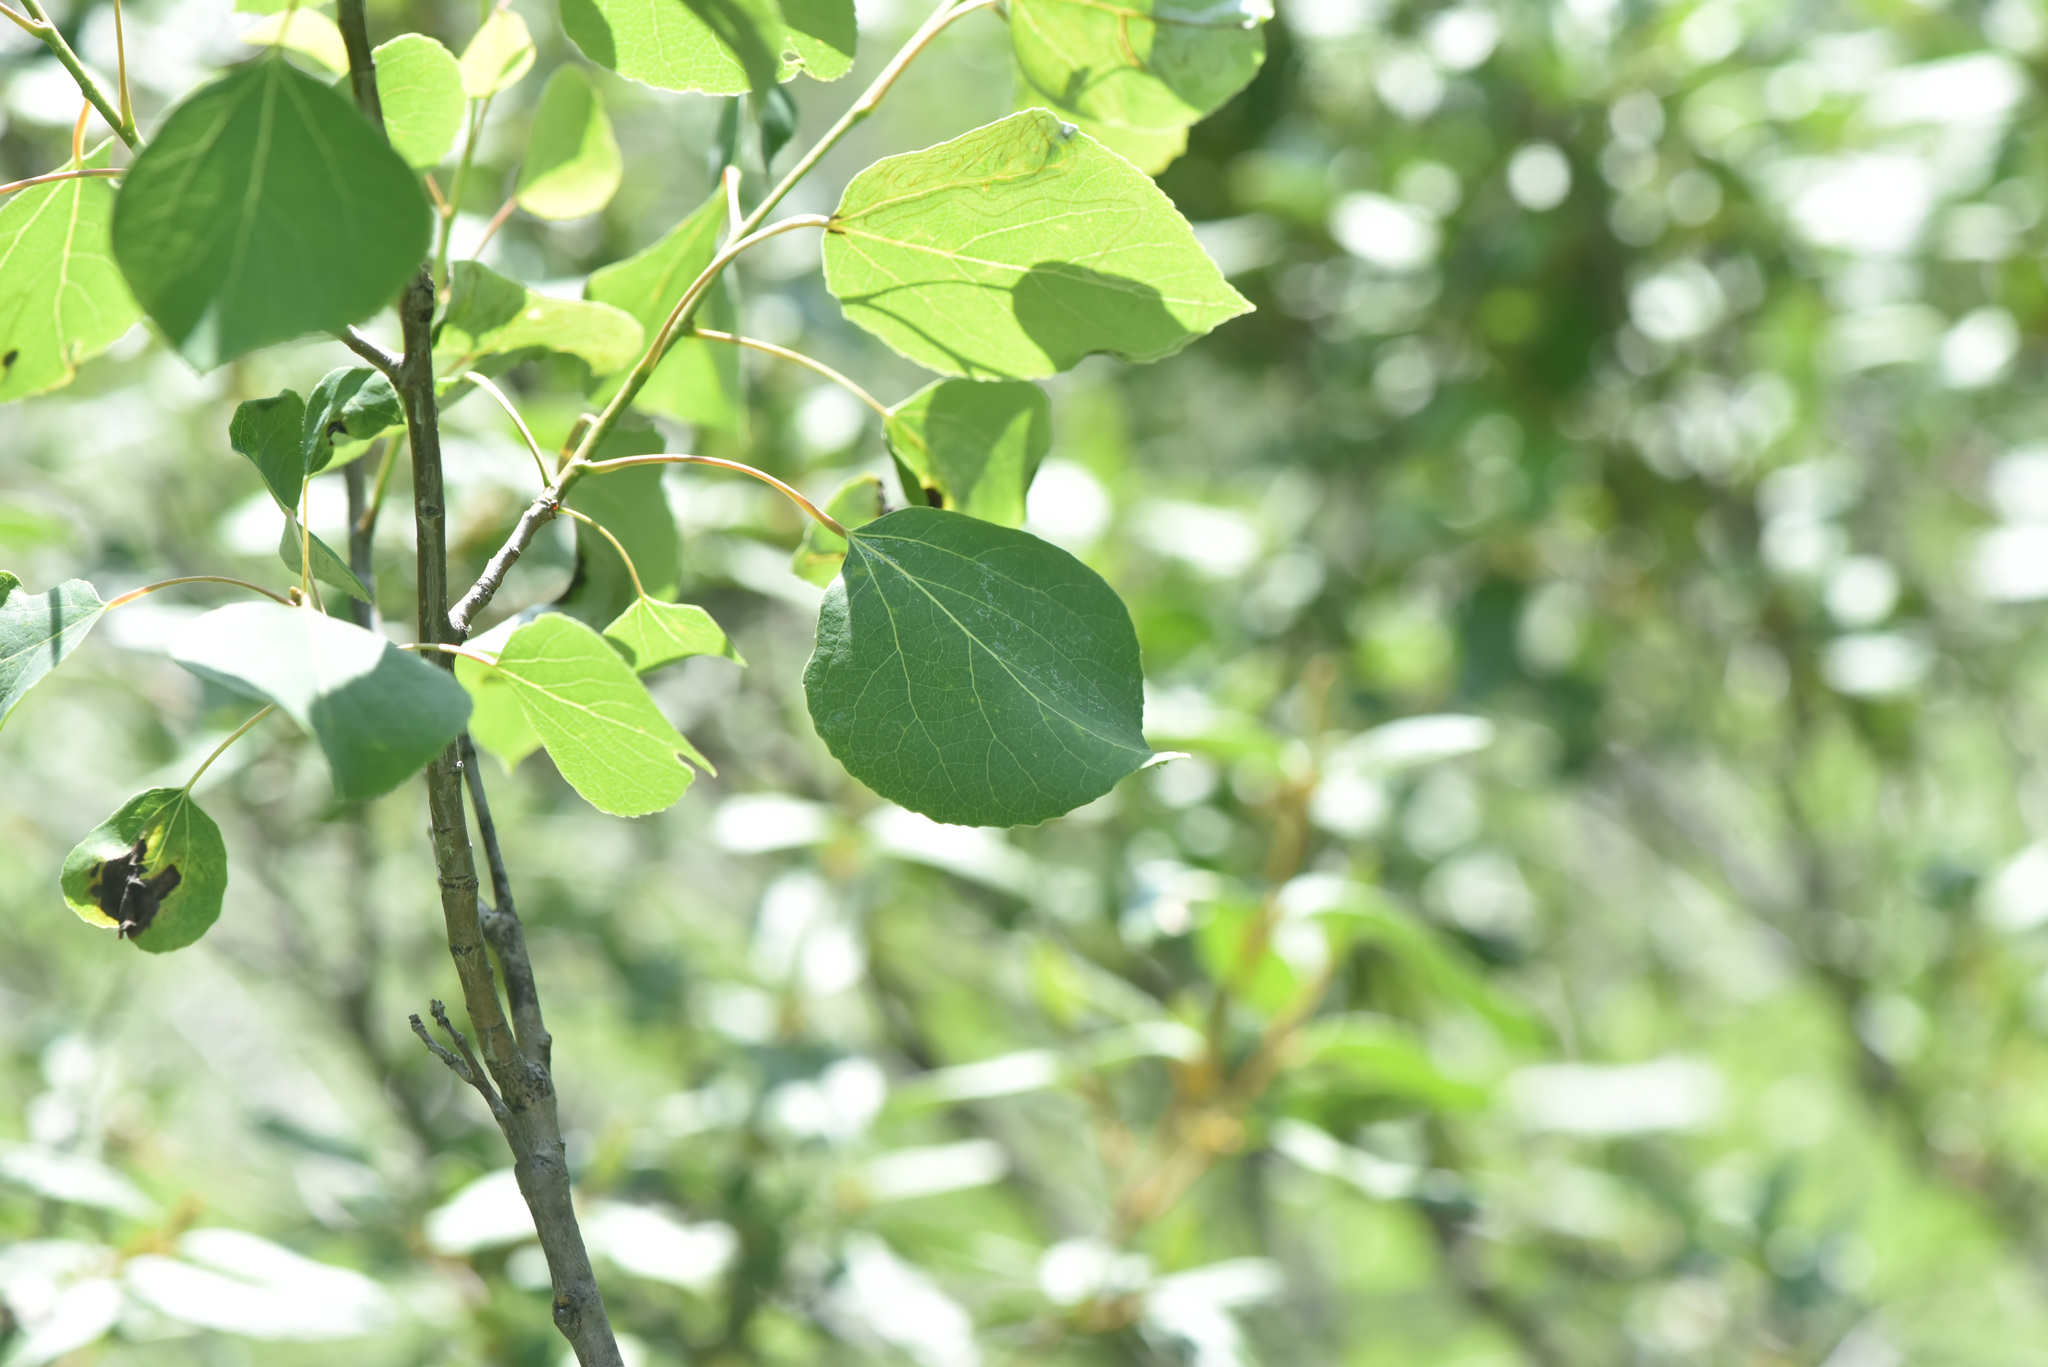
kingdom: Plantae
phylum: Tracheophyta
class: Magnoliopsida
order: Malpighiales
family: Salicaceae
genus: Populus
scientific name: Populus tremuloides
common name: Quaking aspen
